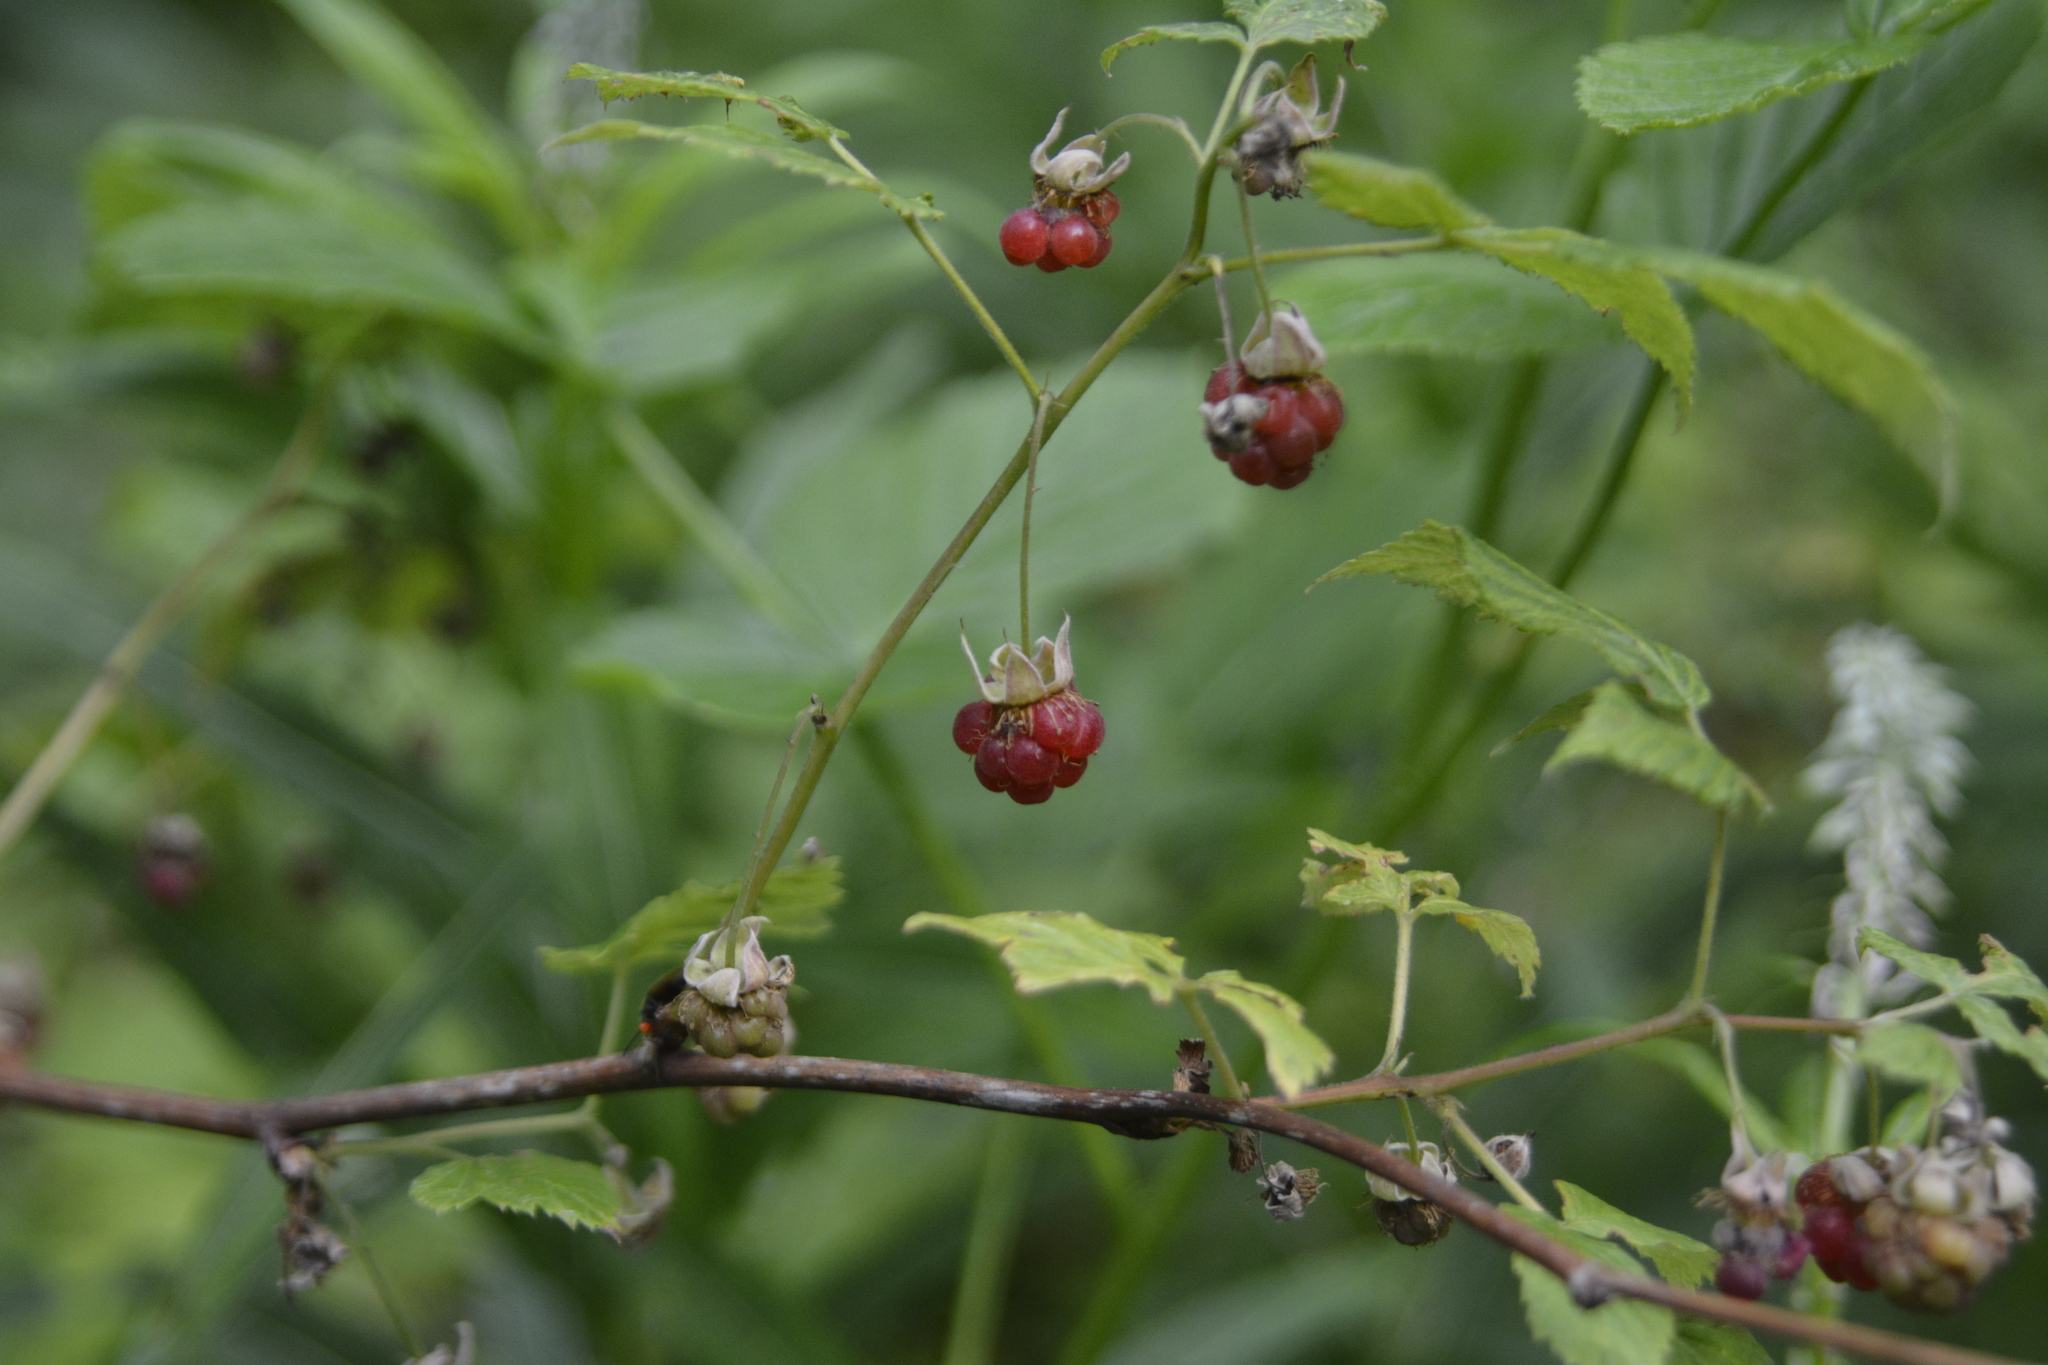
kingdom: Plantae
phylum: Tracheophyta
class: Magnoliopsida
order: Rosales
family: Rosaceae
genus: Rubus
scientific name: Rubus idaeus
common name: Raspberry
